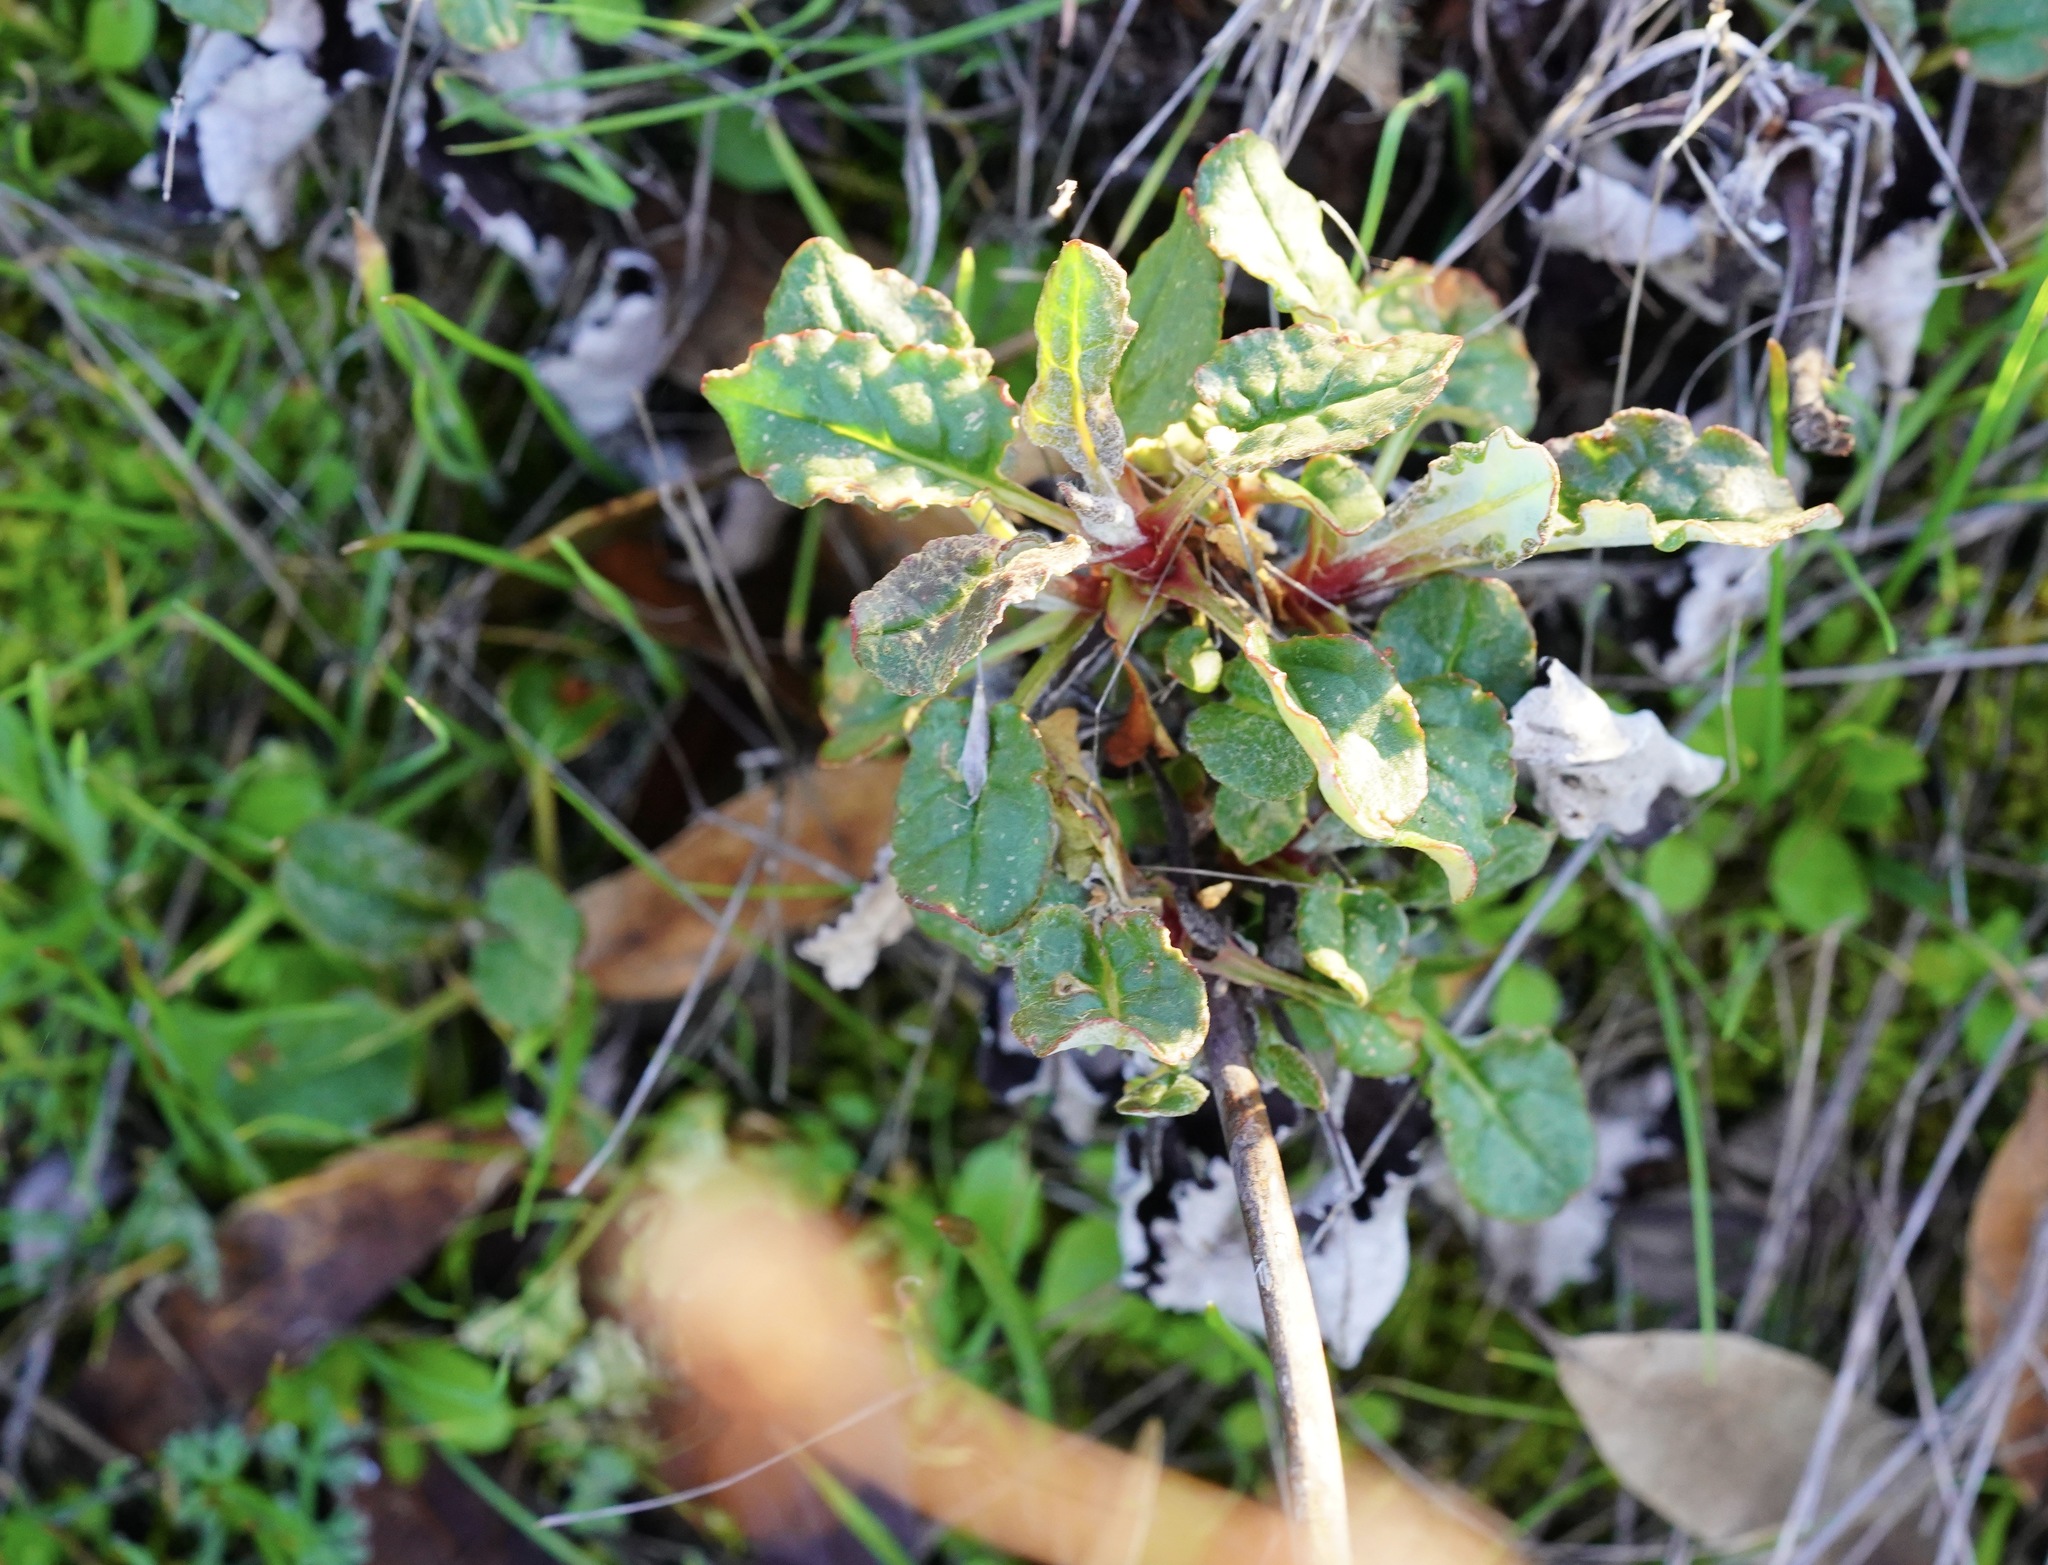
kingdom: Plantae
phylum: Tracheophyta
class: Magnoliopsida
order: Caryophyllales
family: Polygonaceae
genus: Eriogonum
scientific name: Eriogonum nudum
